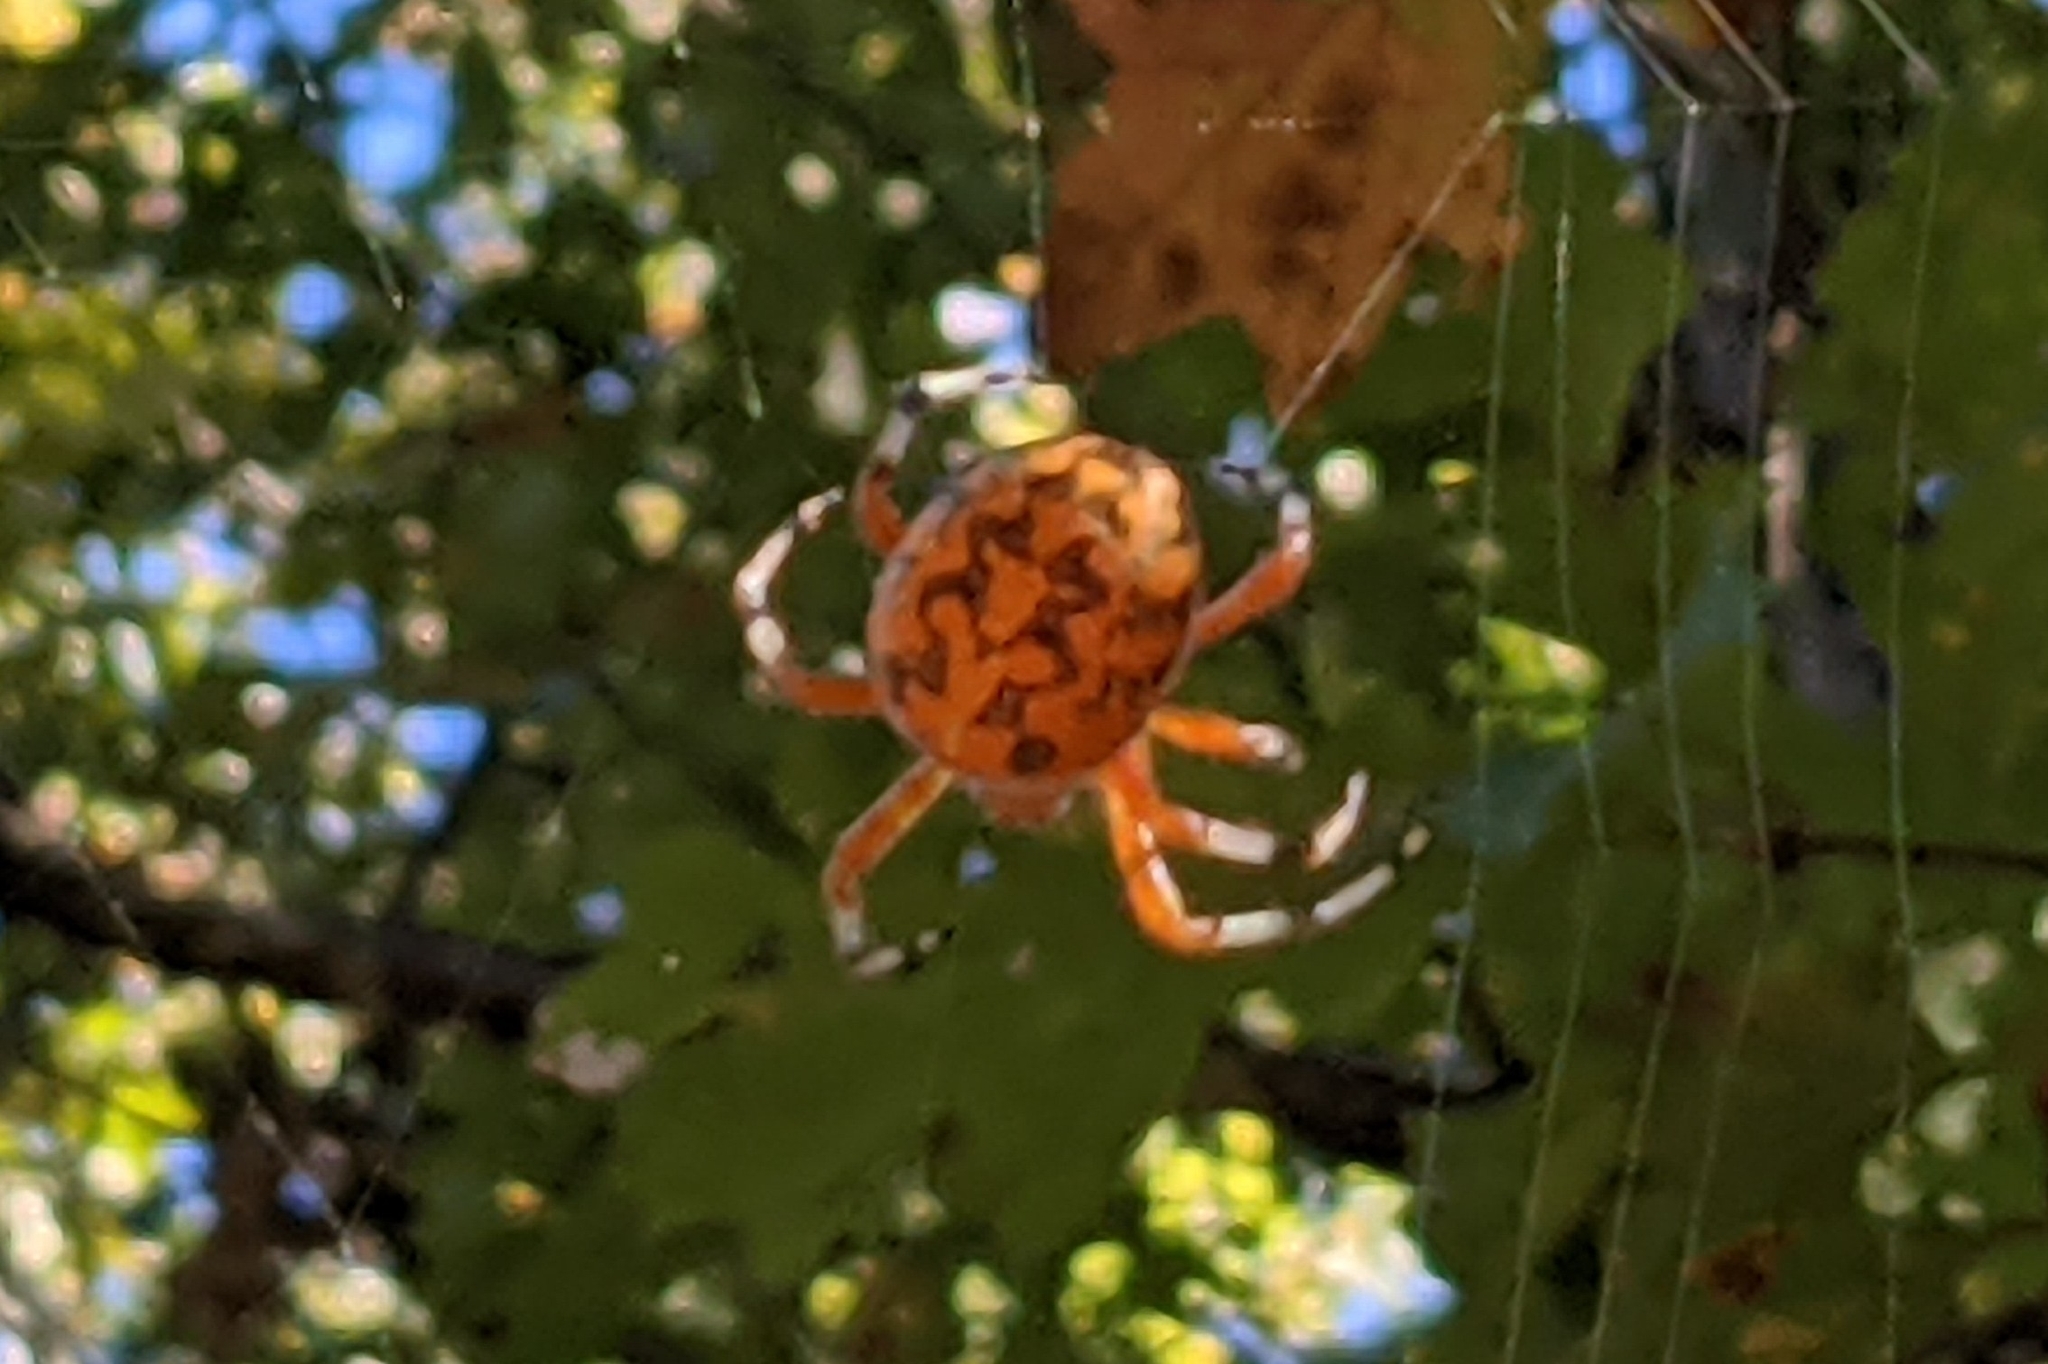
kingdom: Animalia
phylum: Arthropoda
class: Arachnida
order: Araneae
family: Araneidae
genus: Araneus
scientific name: Araneus marmoreus
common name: Marbled orbweaver
